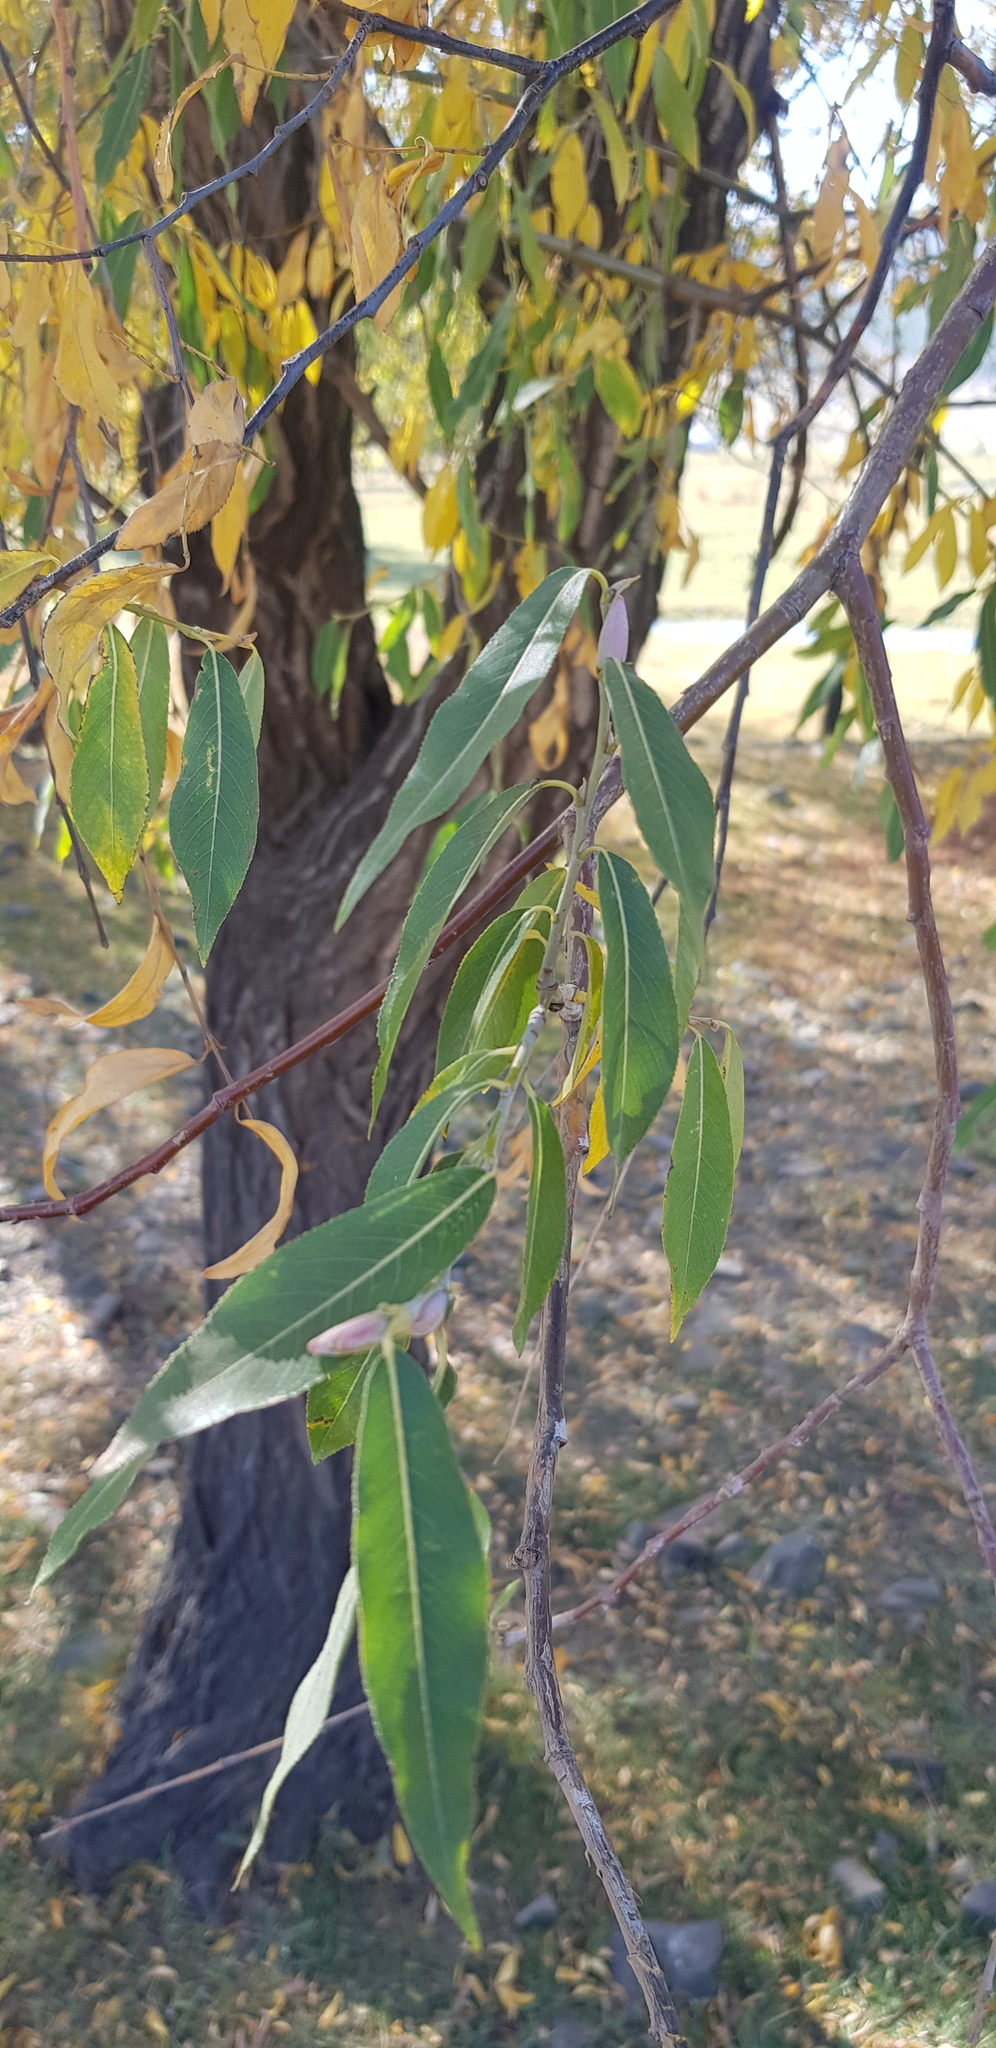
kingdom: Plantae
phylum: Tracheophyta
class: Magnoliopsida
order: Malpighiales
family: Salicaceae
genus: Salix
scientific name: Salix udensis
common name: Sachalin willow
